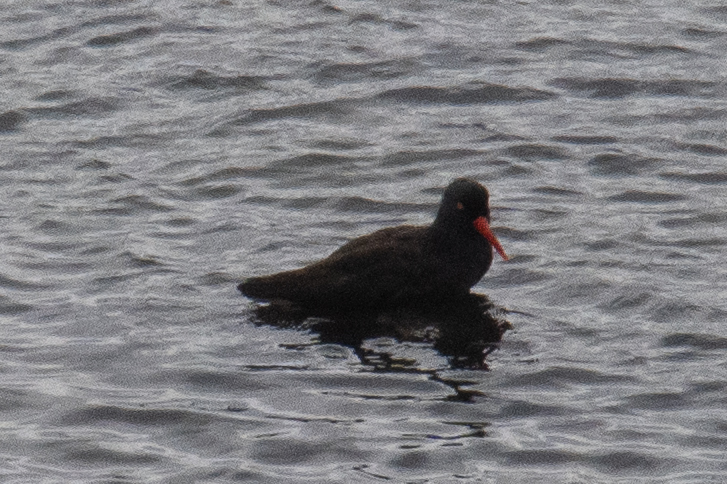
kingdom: Animalia
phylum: Chordata
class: Aves
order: Charadriiformes
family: Haematopodidae
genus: Haematopus
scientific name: Haematopus bachmani
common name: Black oystercatcher
